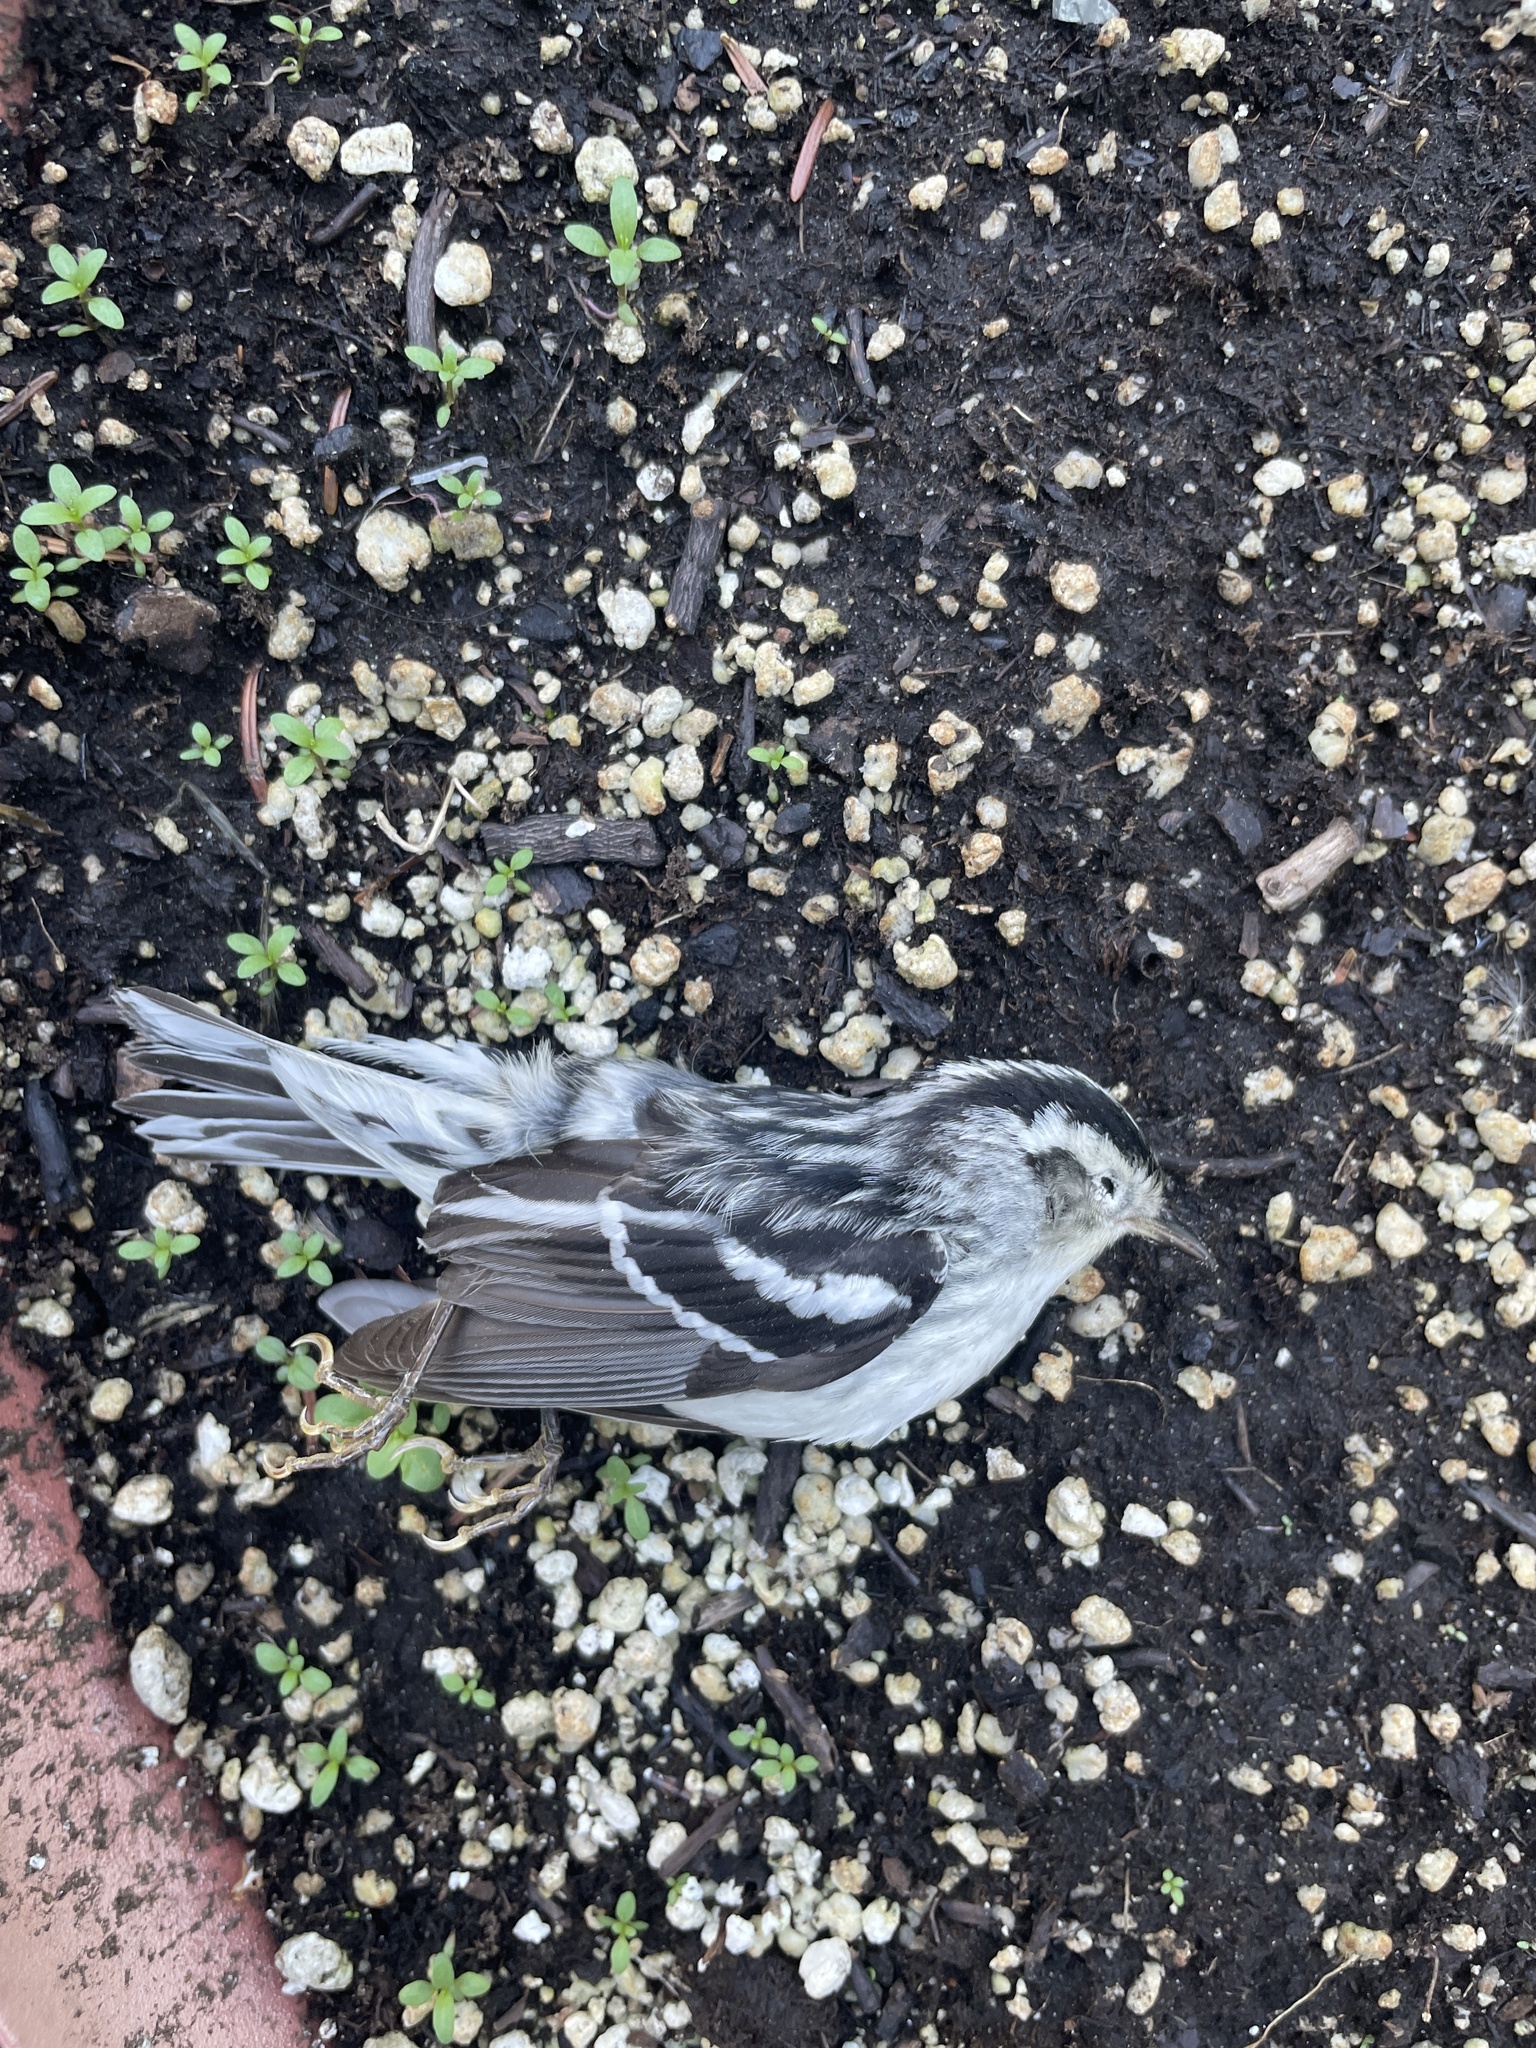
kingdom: Animalia
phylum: Chordata
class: Aves
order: Passeriformes
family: Parulidae
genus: Mniotilta
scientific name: Mniotilta varia
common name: Black-and-white warbler
